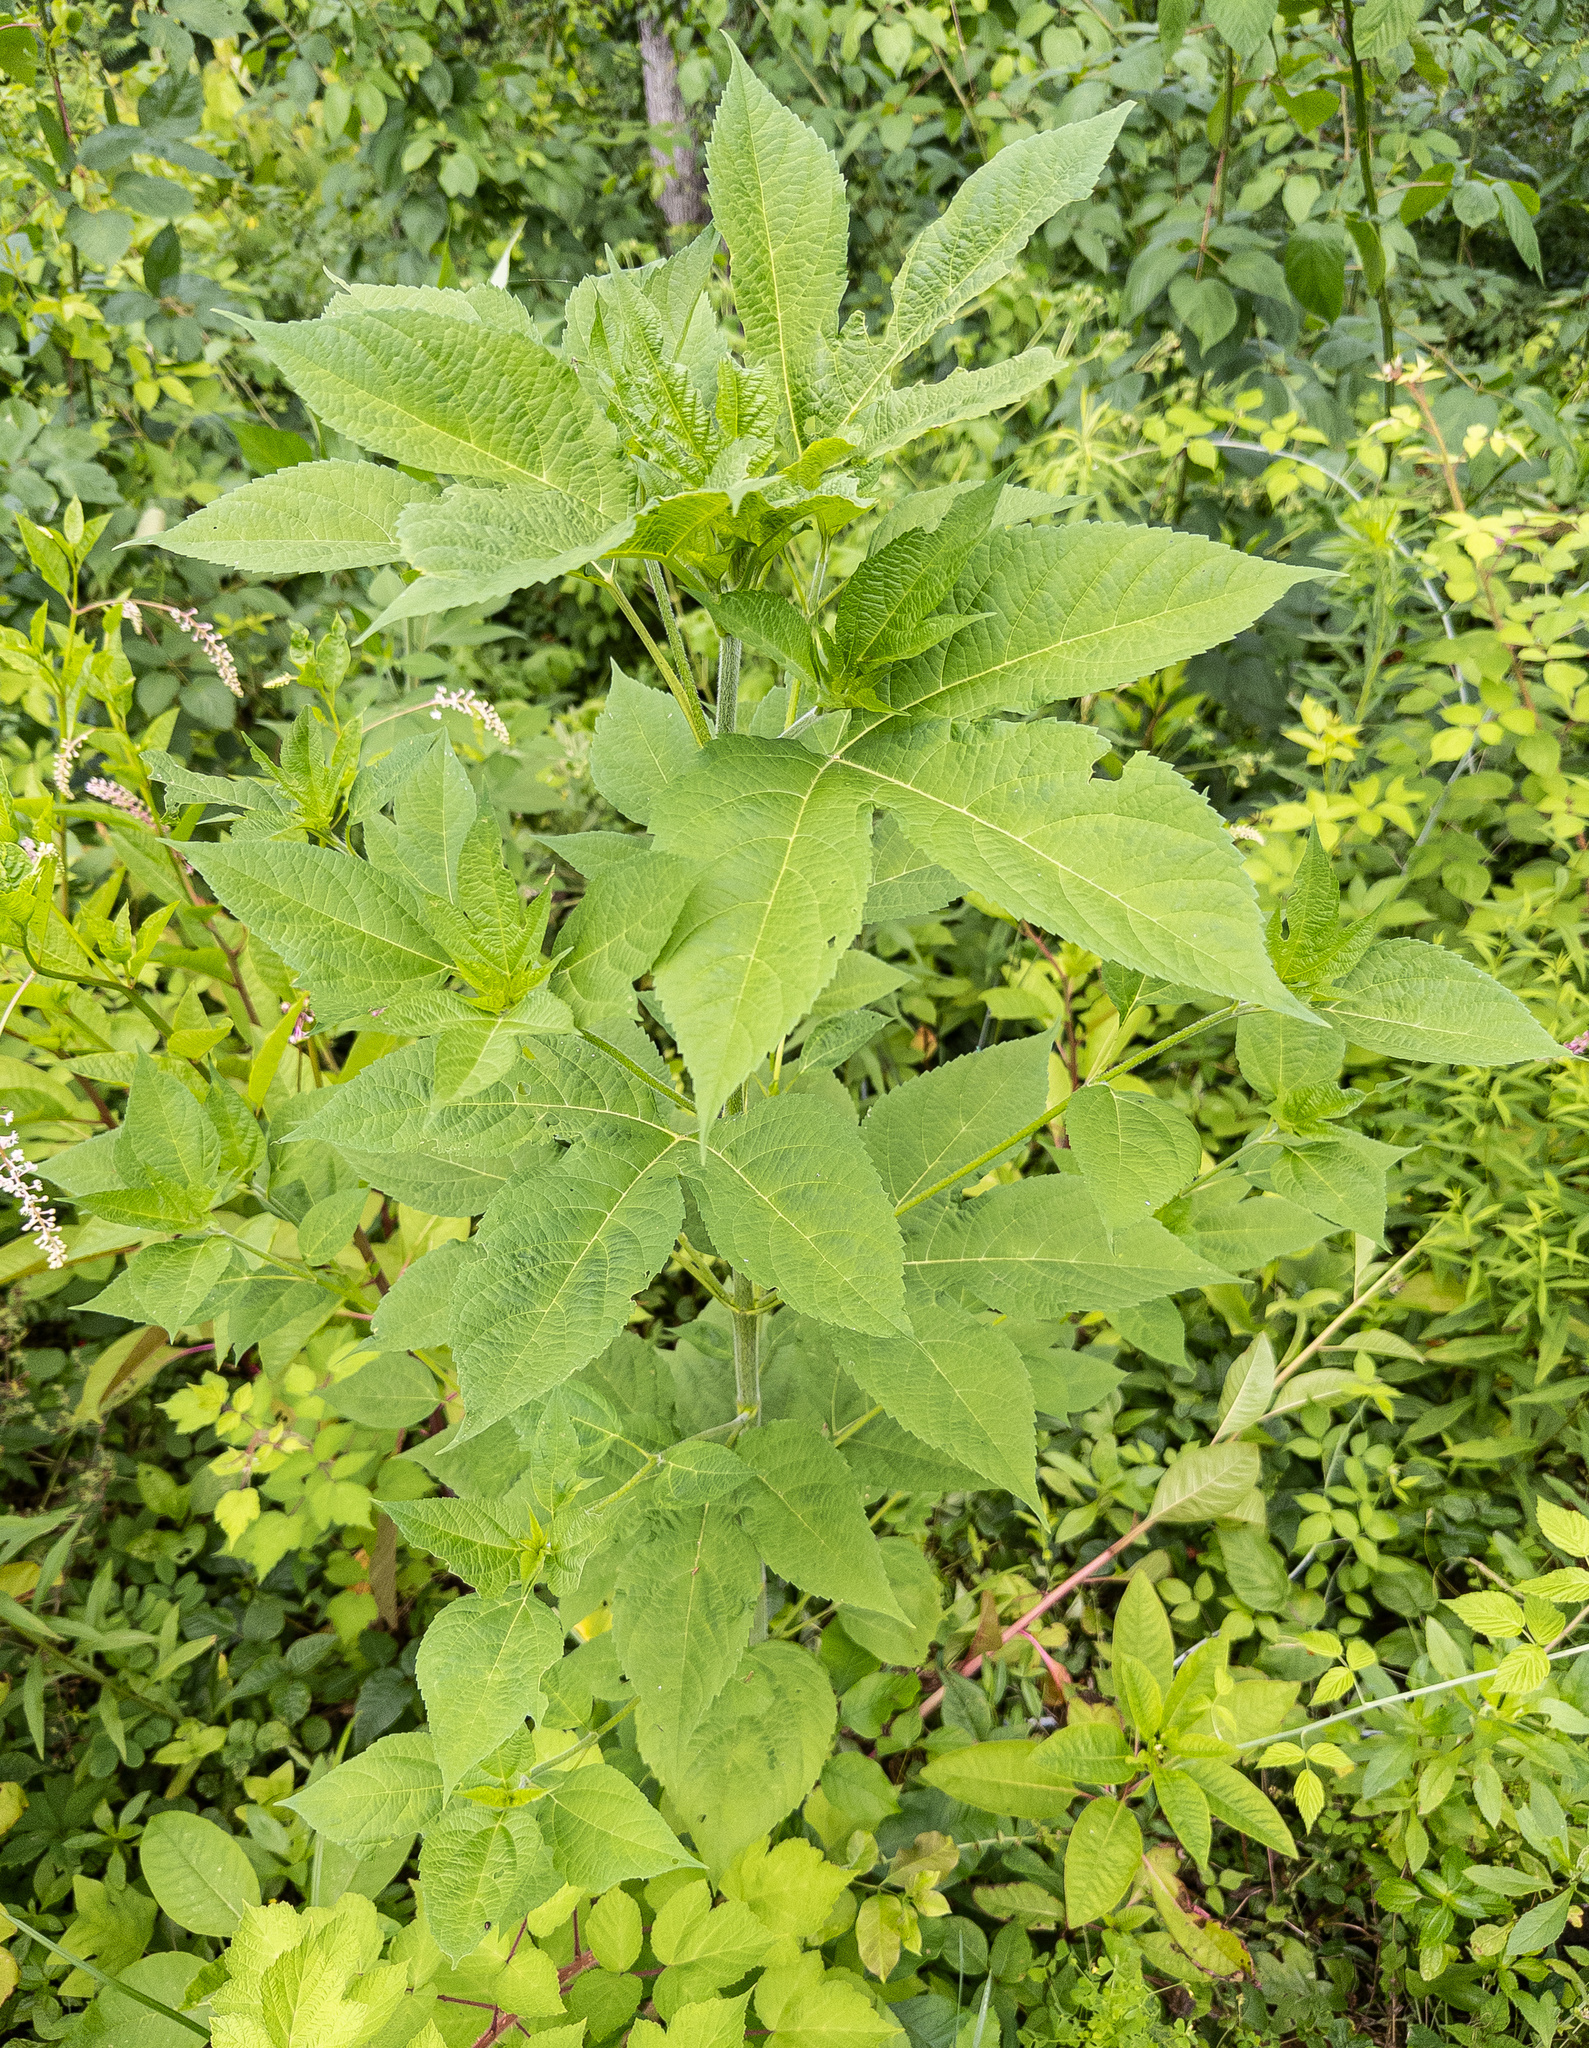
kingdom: Plantae
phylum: Tracheophyta
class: Magnoliopsida
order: Asterales
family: Asteraceae
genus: Ambrosia
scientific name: Ambrosia trifida
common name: Giant ragweed
